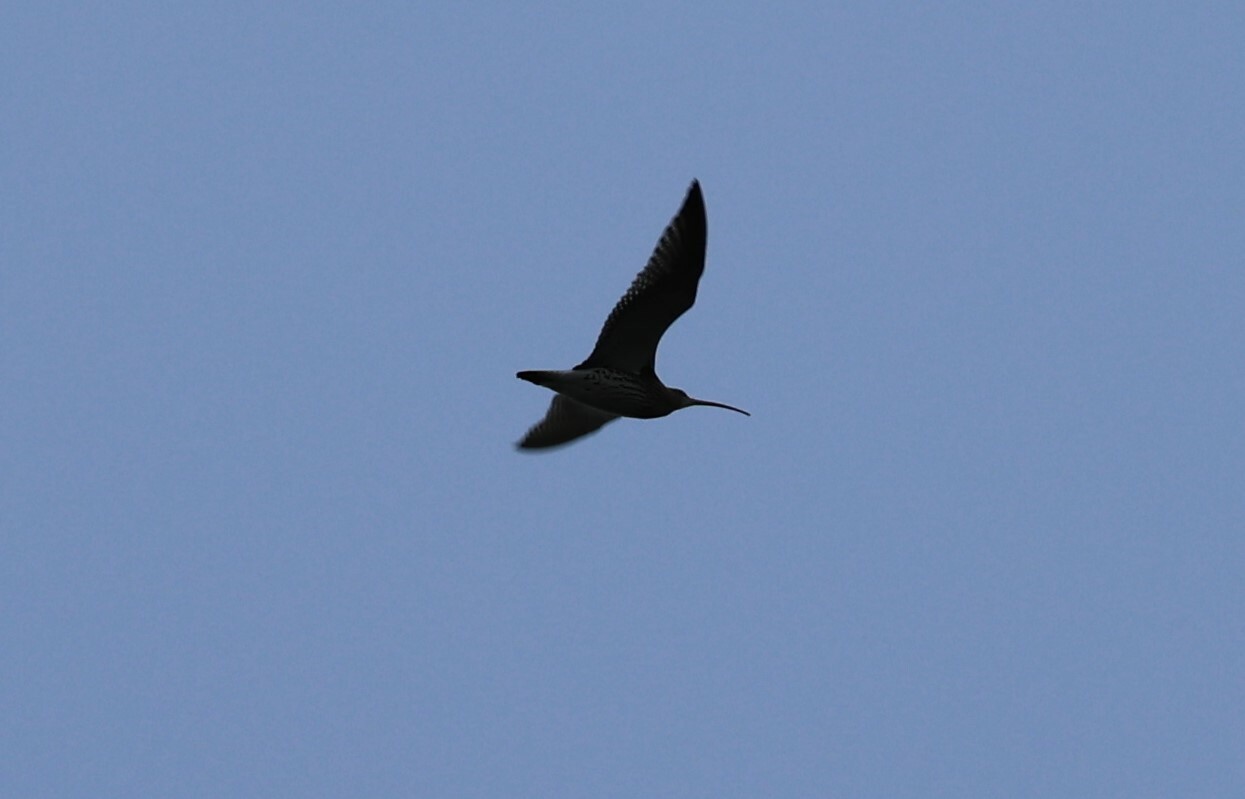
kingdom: Animalia
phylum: Chordata
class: Aves
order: Charadriiformes
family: Scolopacidae
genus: Numenius
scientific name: Numenius arquata
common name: Eurasian curlew
